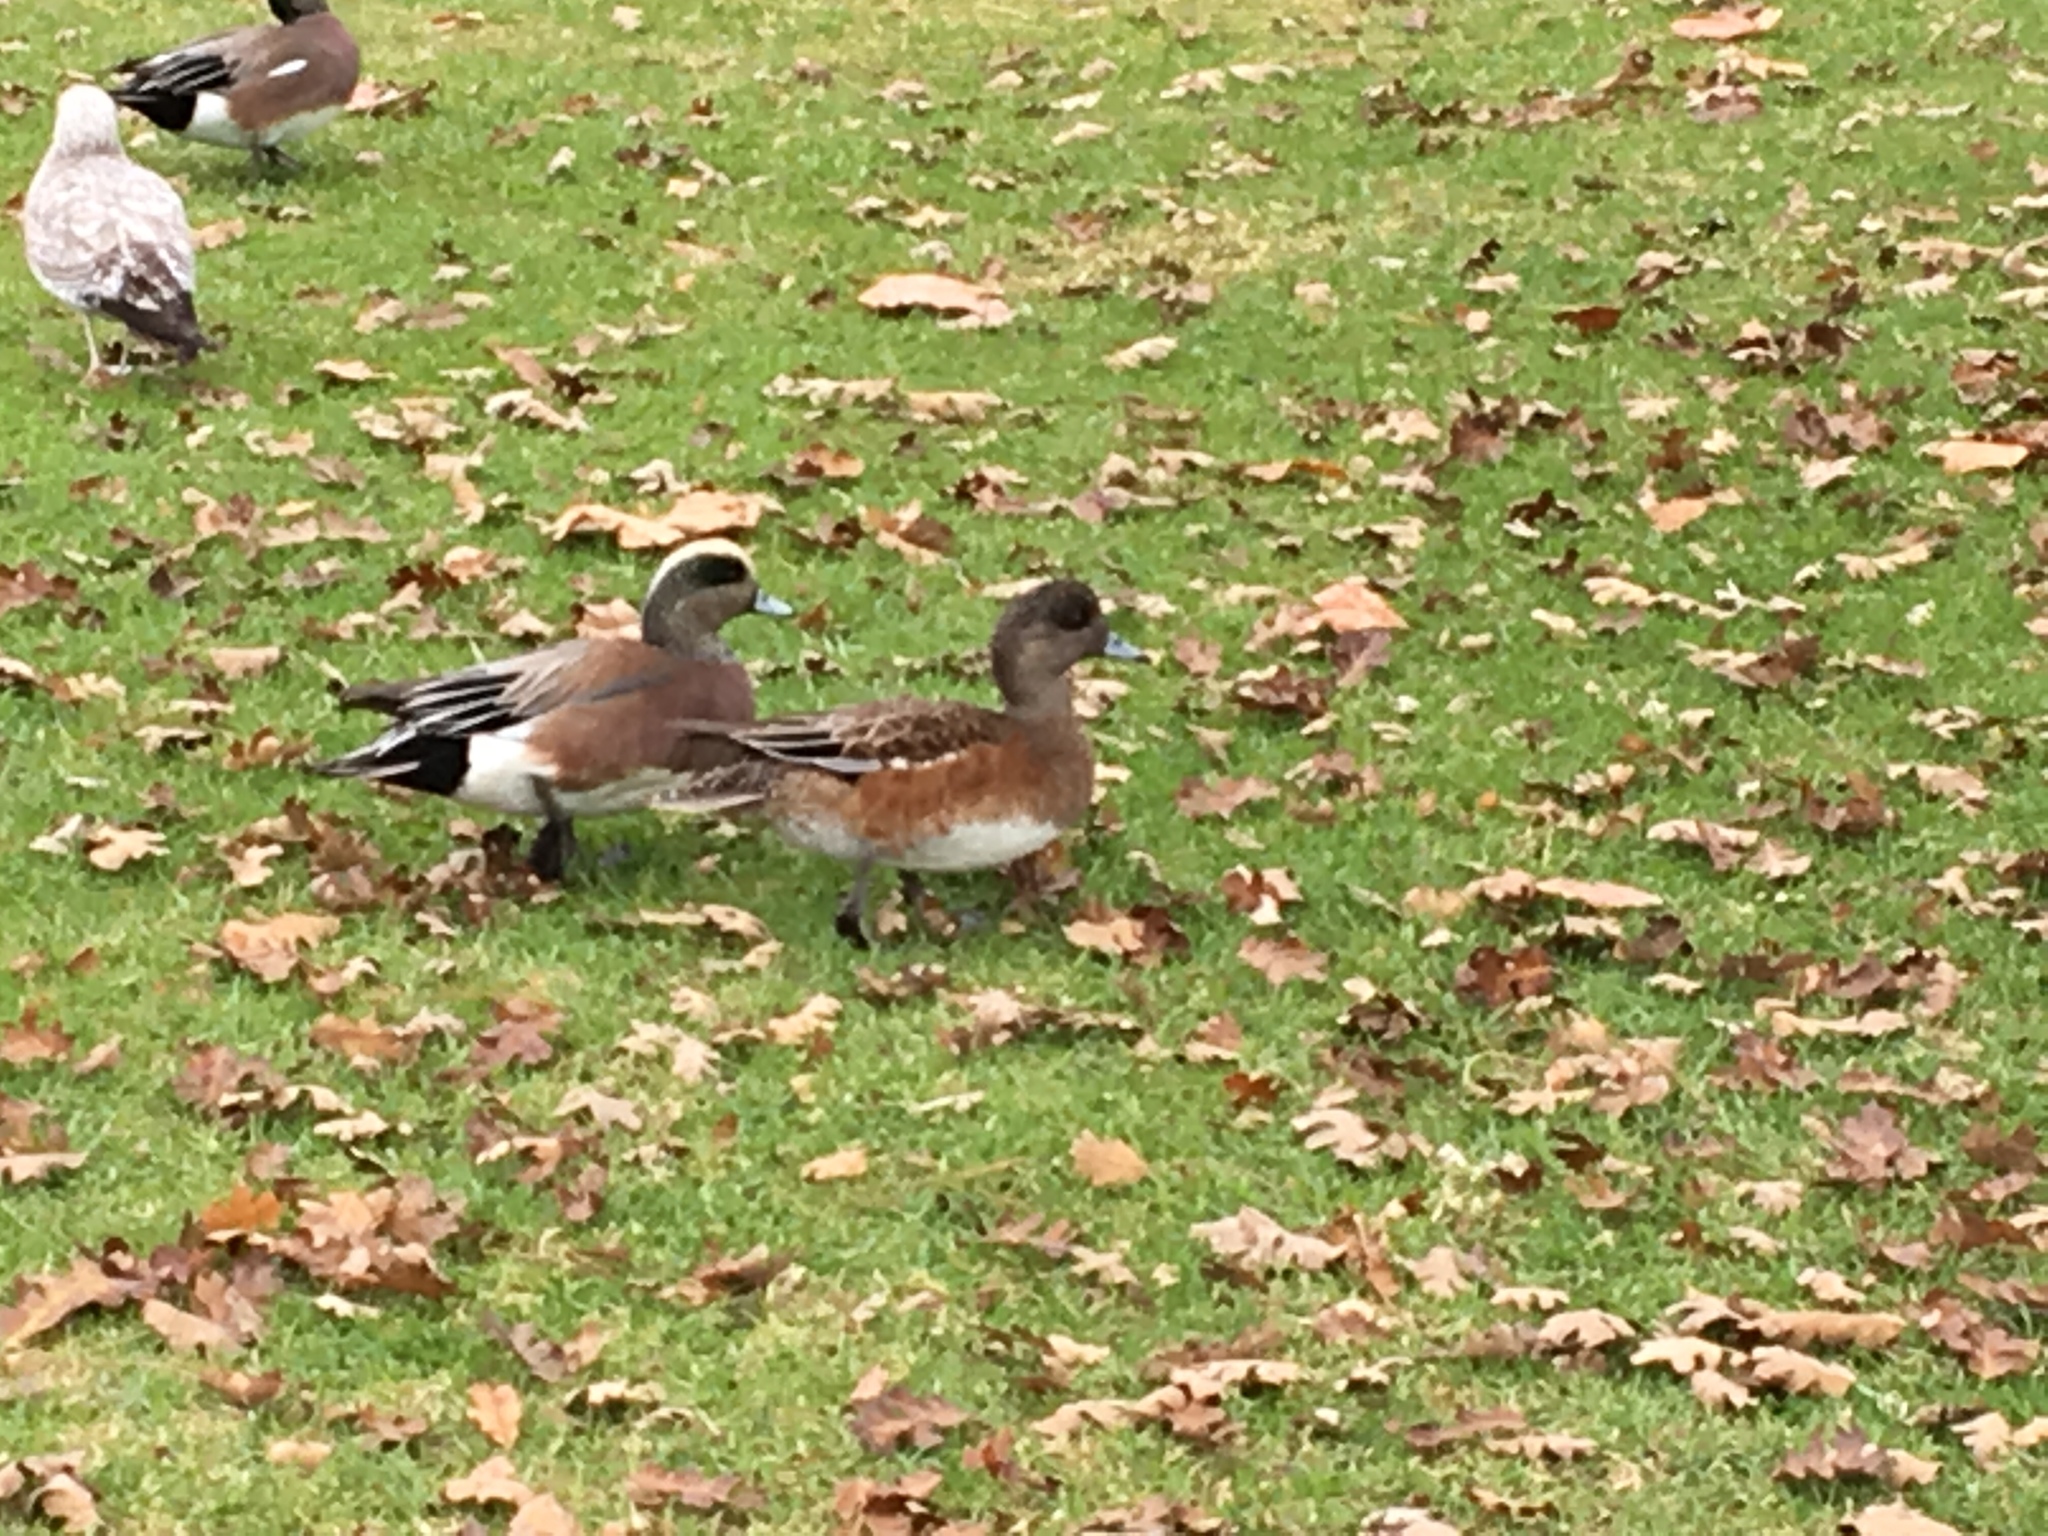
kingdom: Animalia
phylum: Chordata
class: Aves
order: Anseriformes
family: Anatidae
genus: Mareca
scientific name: Mareca americana
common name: American wigeon
